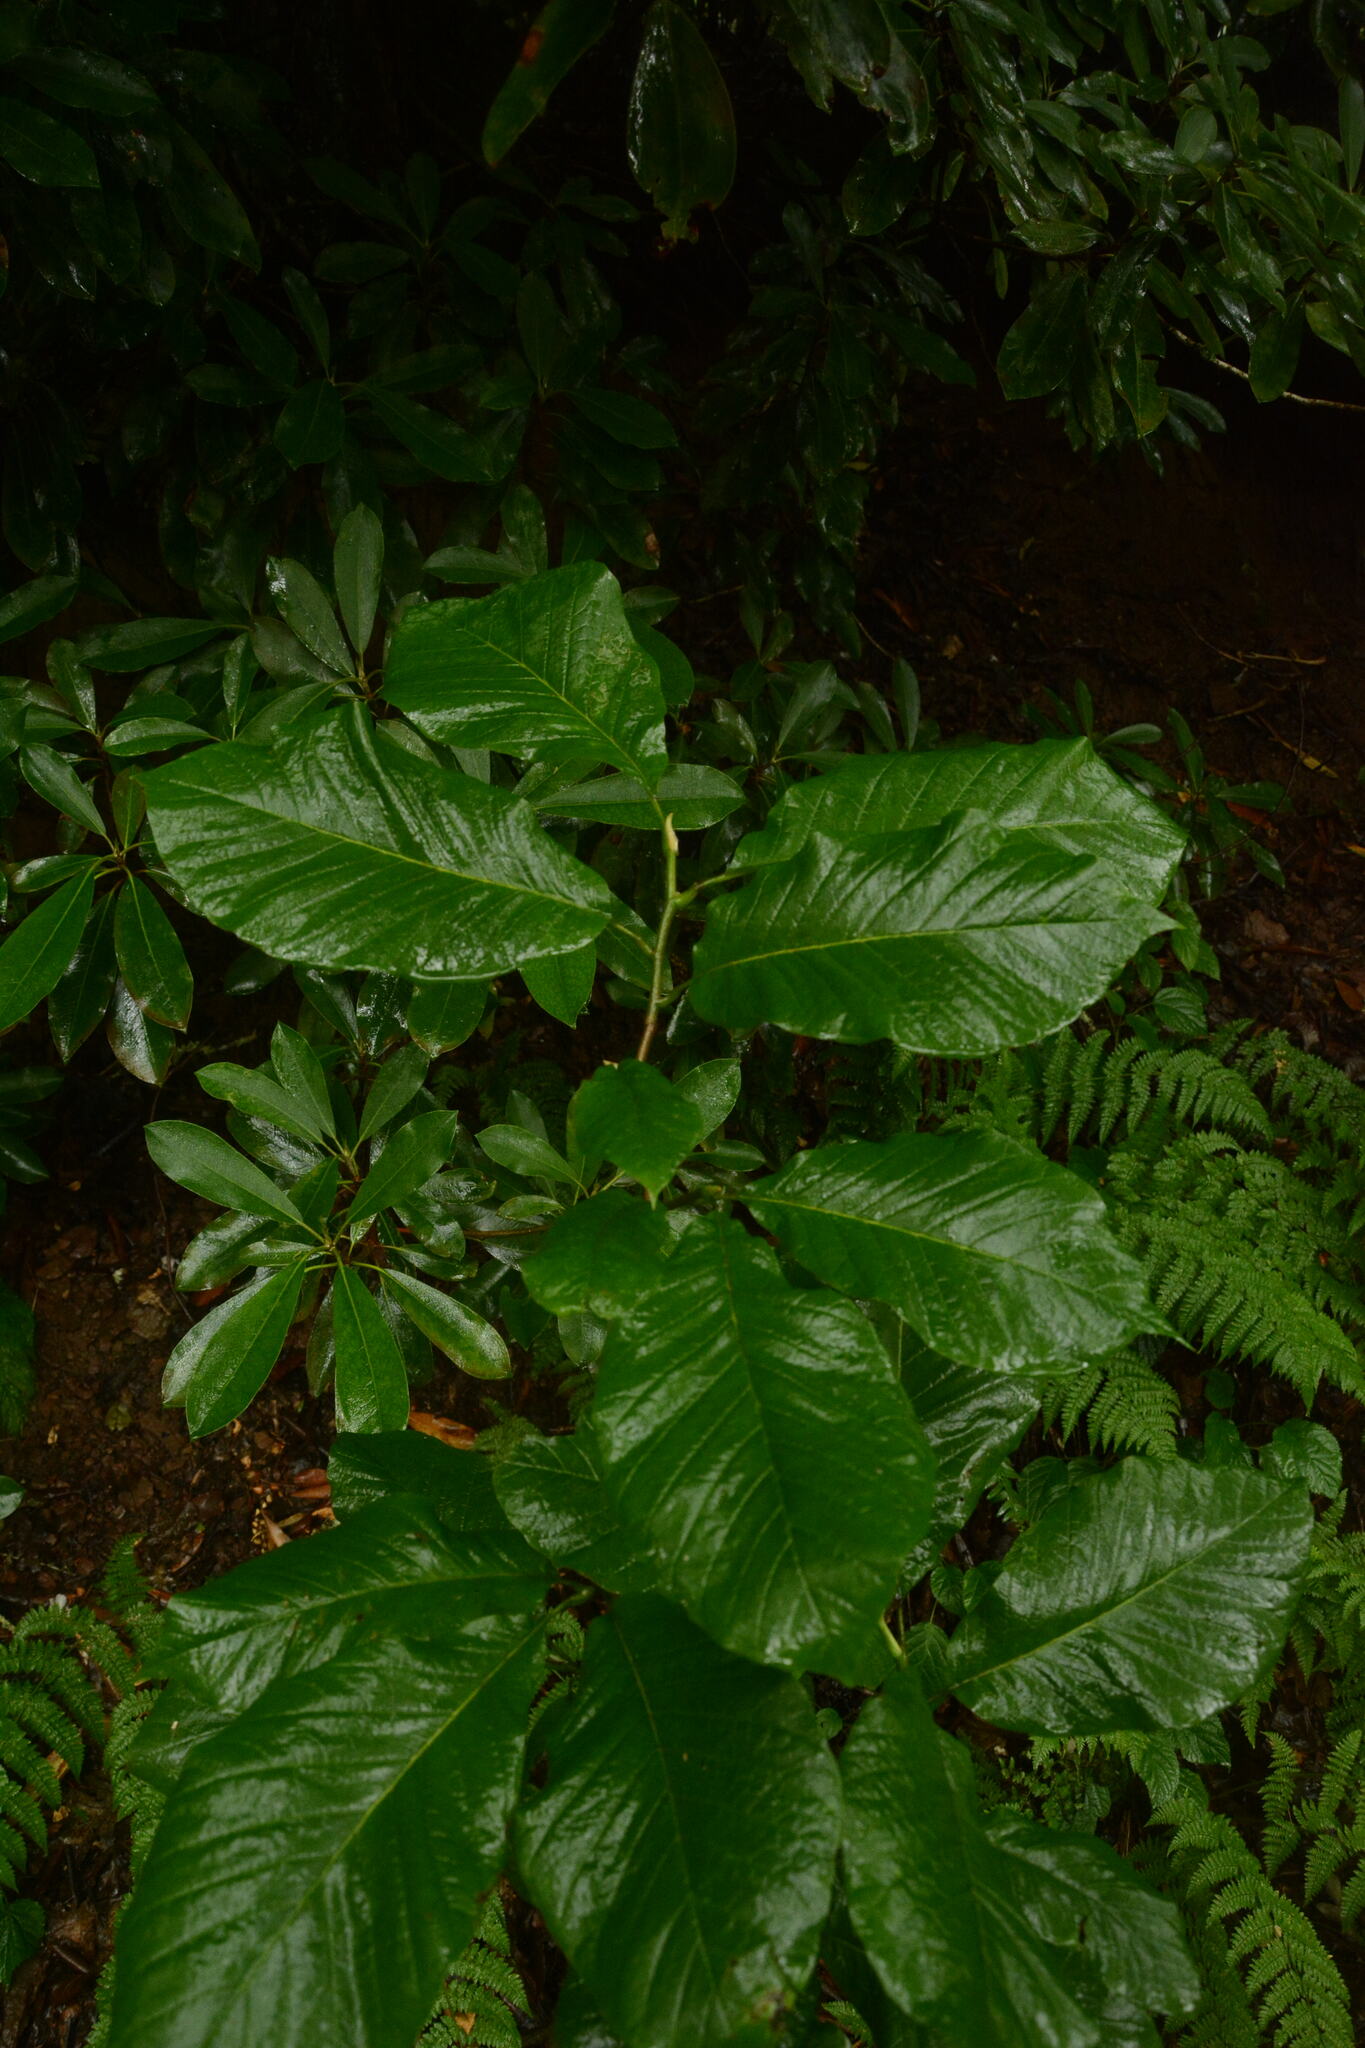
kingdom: Plantae
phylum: Tracheophyta
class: Magnoliopsida
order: Magnoliales
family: Magnoliaceae
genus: Magnolia
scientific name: Magnolia acuminata
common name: Cucumber magnolia
